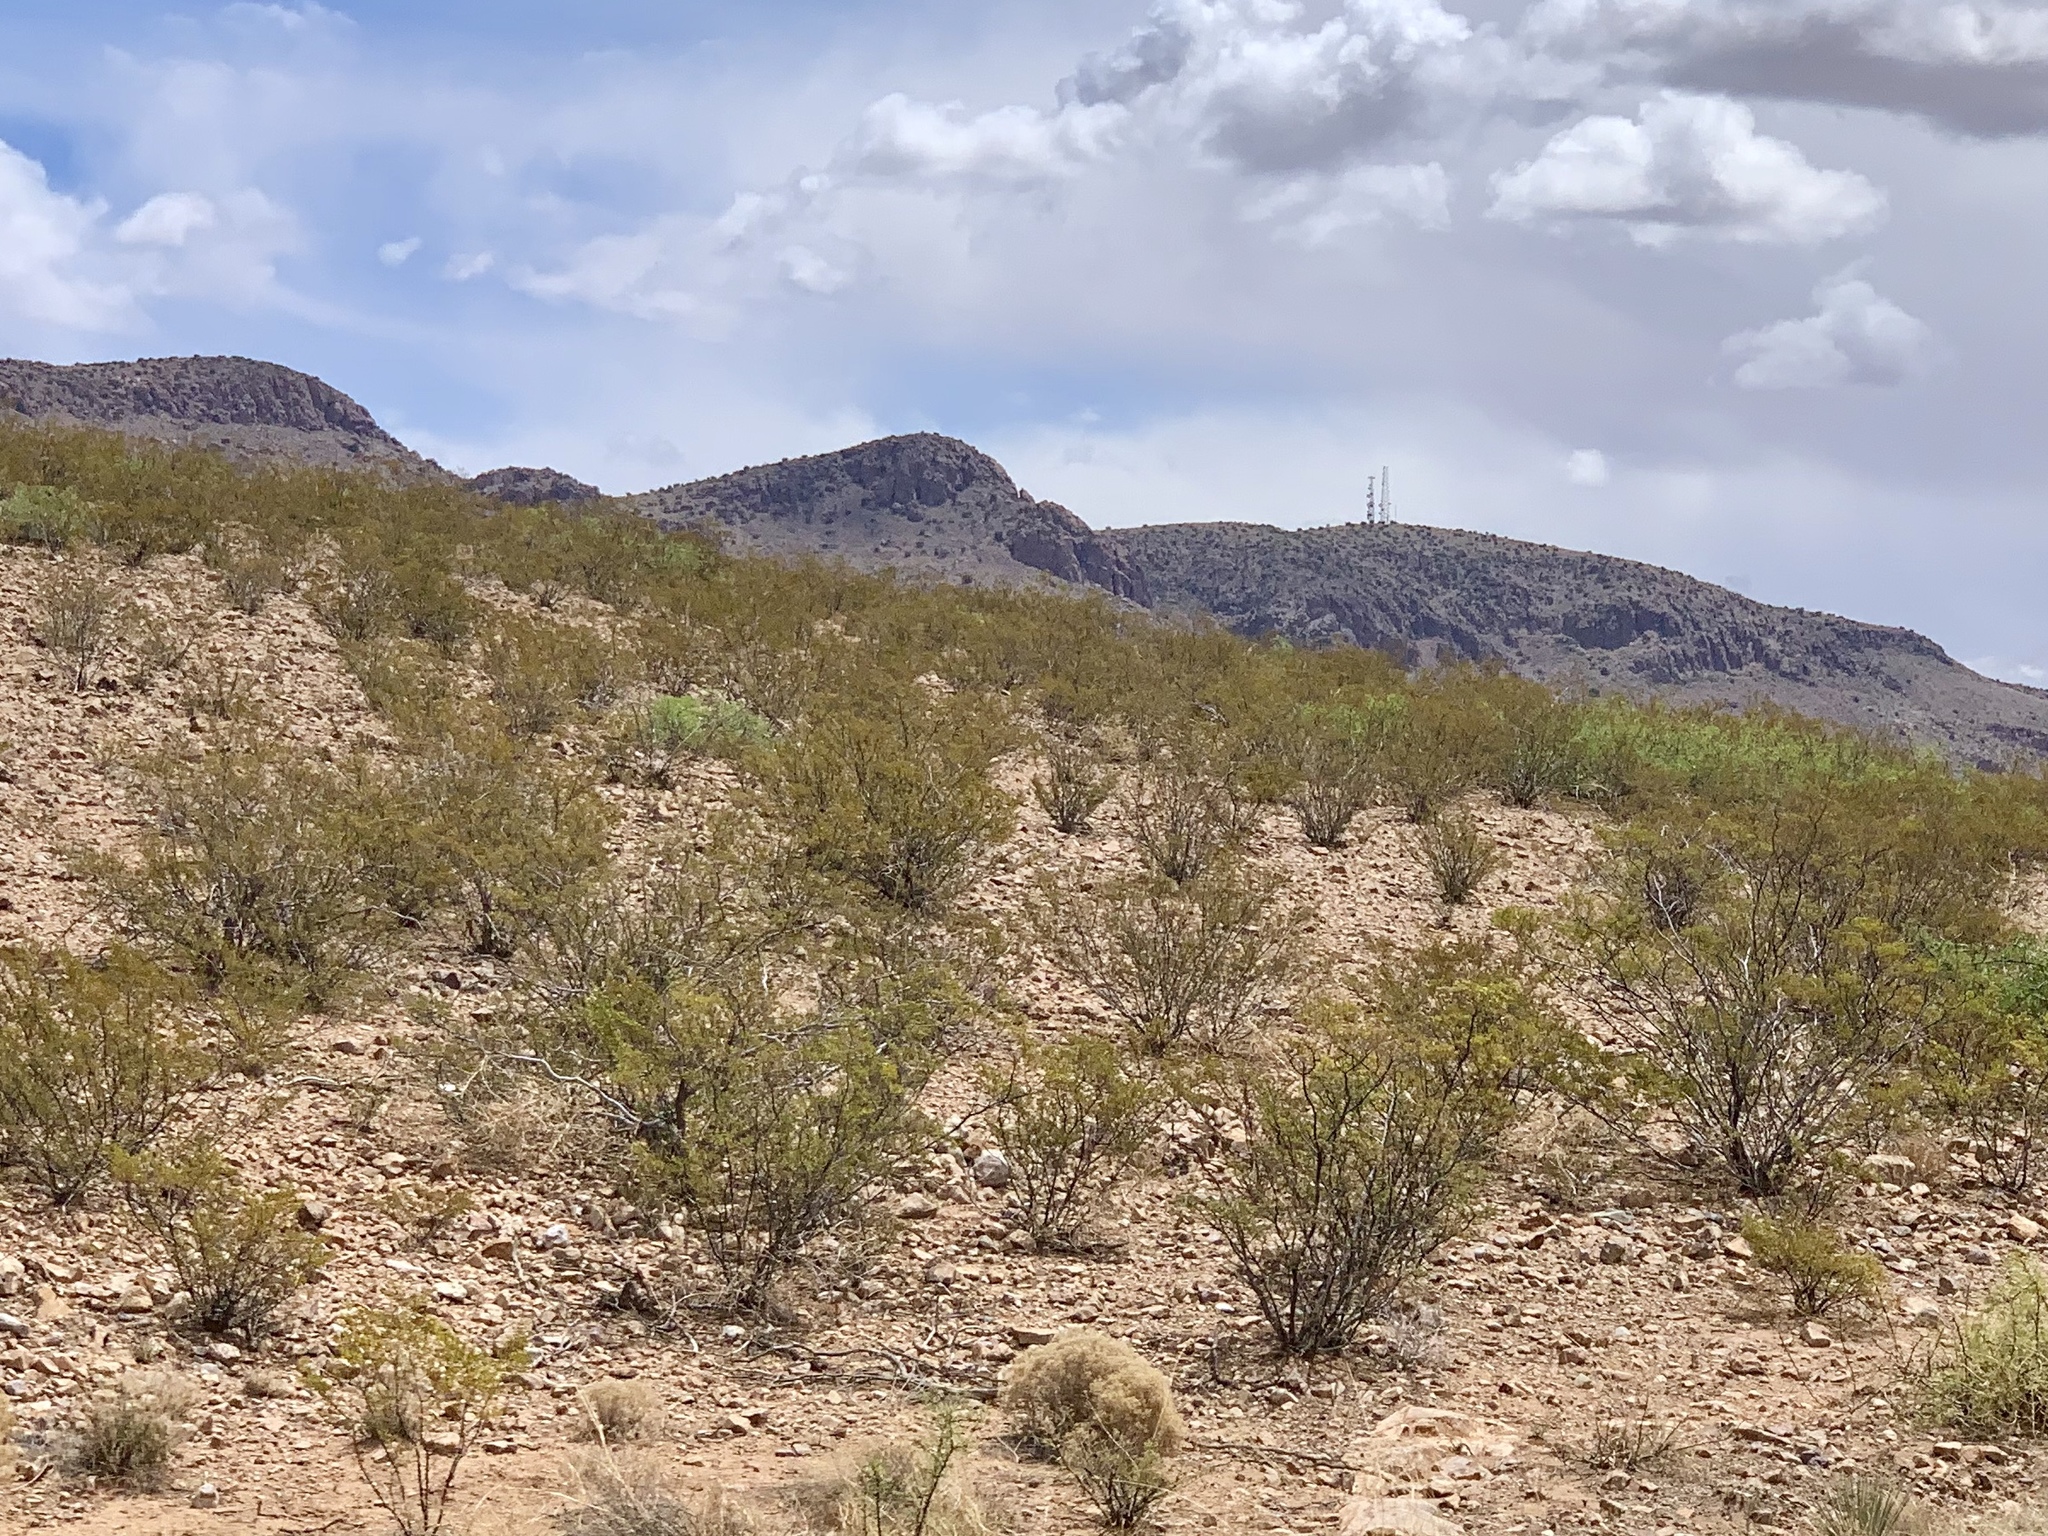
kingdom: Plantae
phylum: Tracheophyta
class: Magnoliopsida
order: Zygophyllales
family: Zygophyllaceae
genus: Larrea
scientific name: Larrea tridentata
